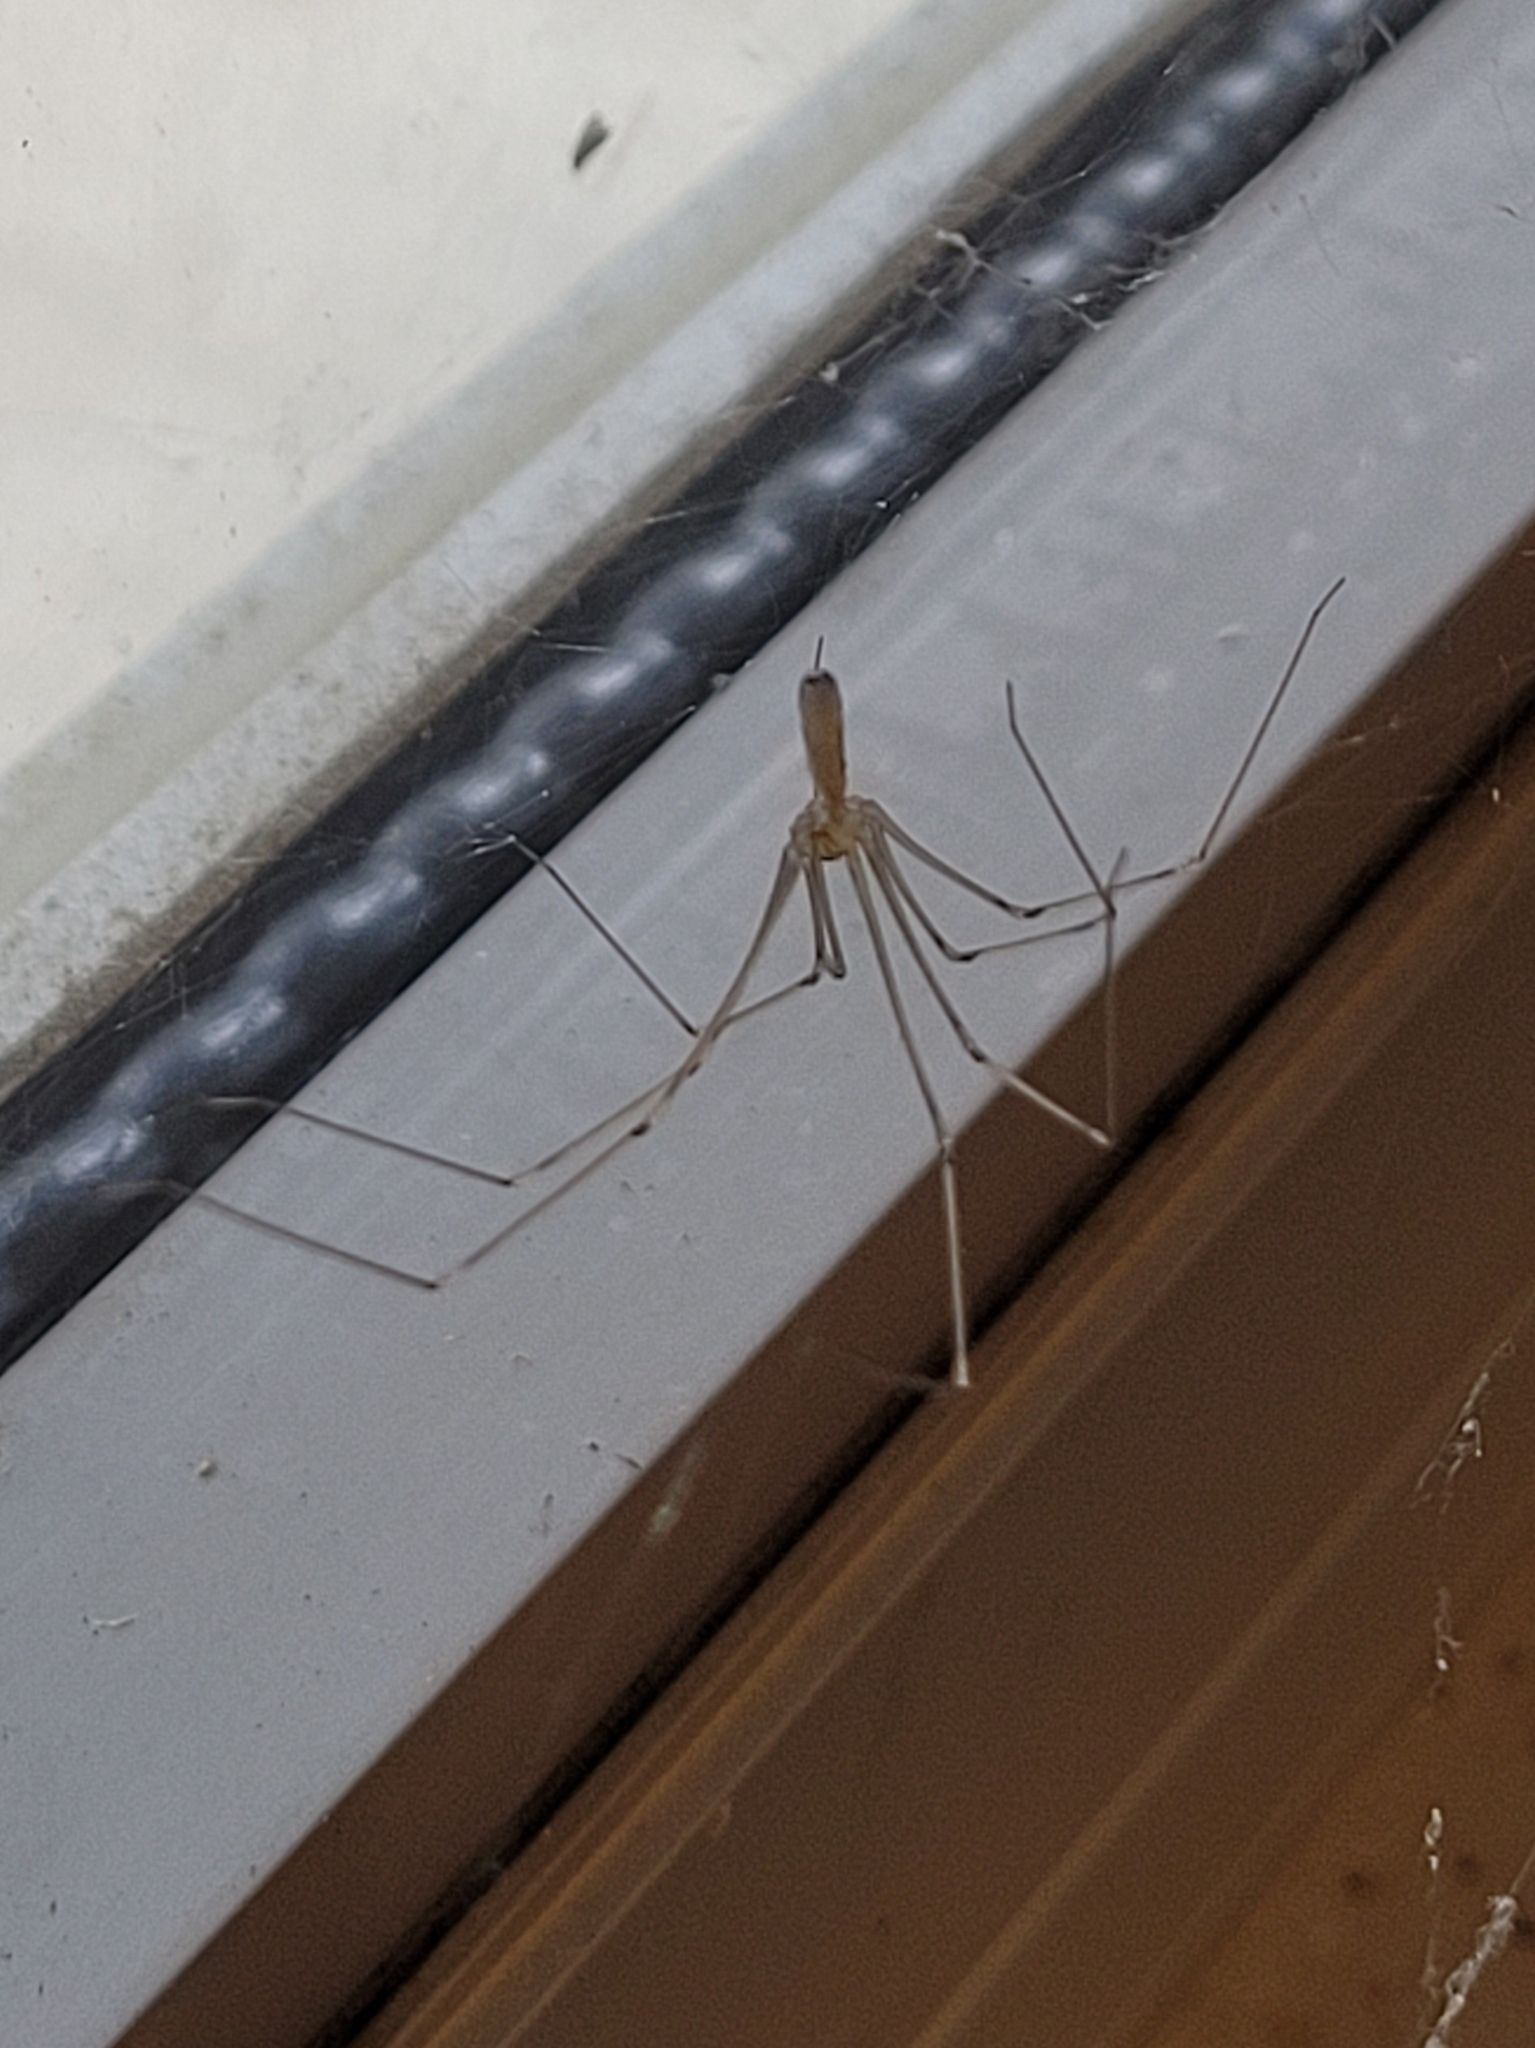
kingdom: Animalia
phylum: Arthropoda
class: Arachnida
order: Araneae
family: Pholcidae
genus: Pholcus
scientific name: Pholcus phalangioides
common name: Longbodied cellar spider
